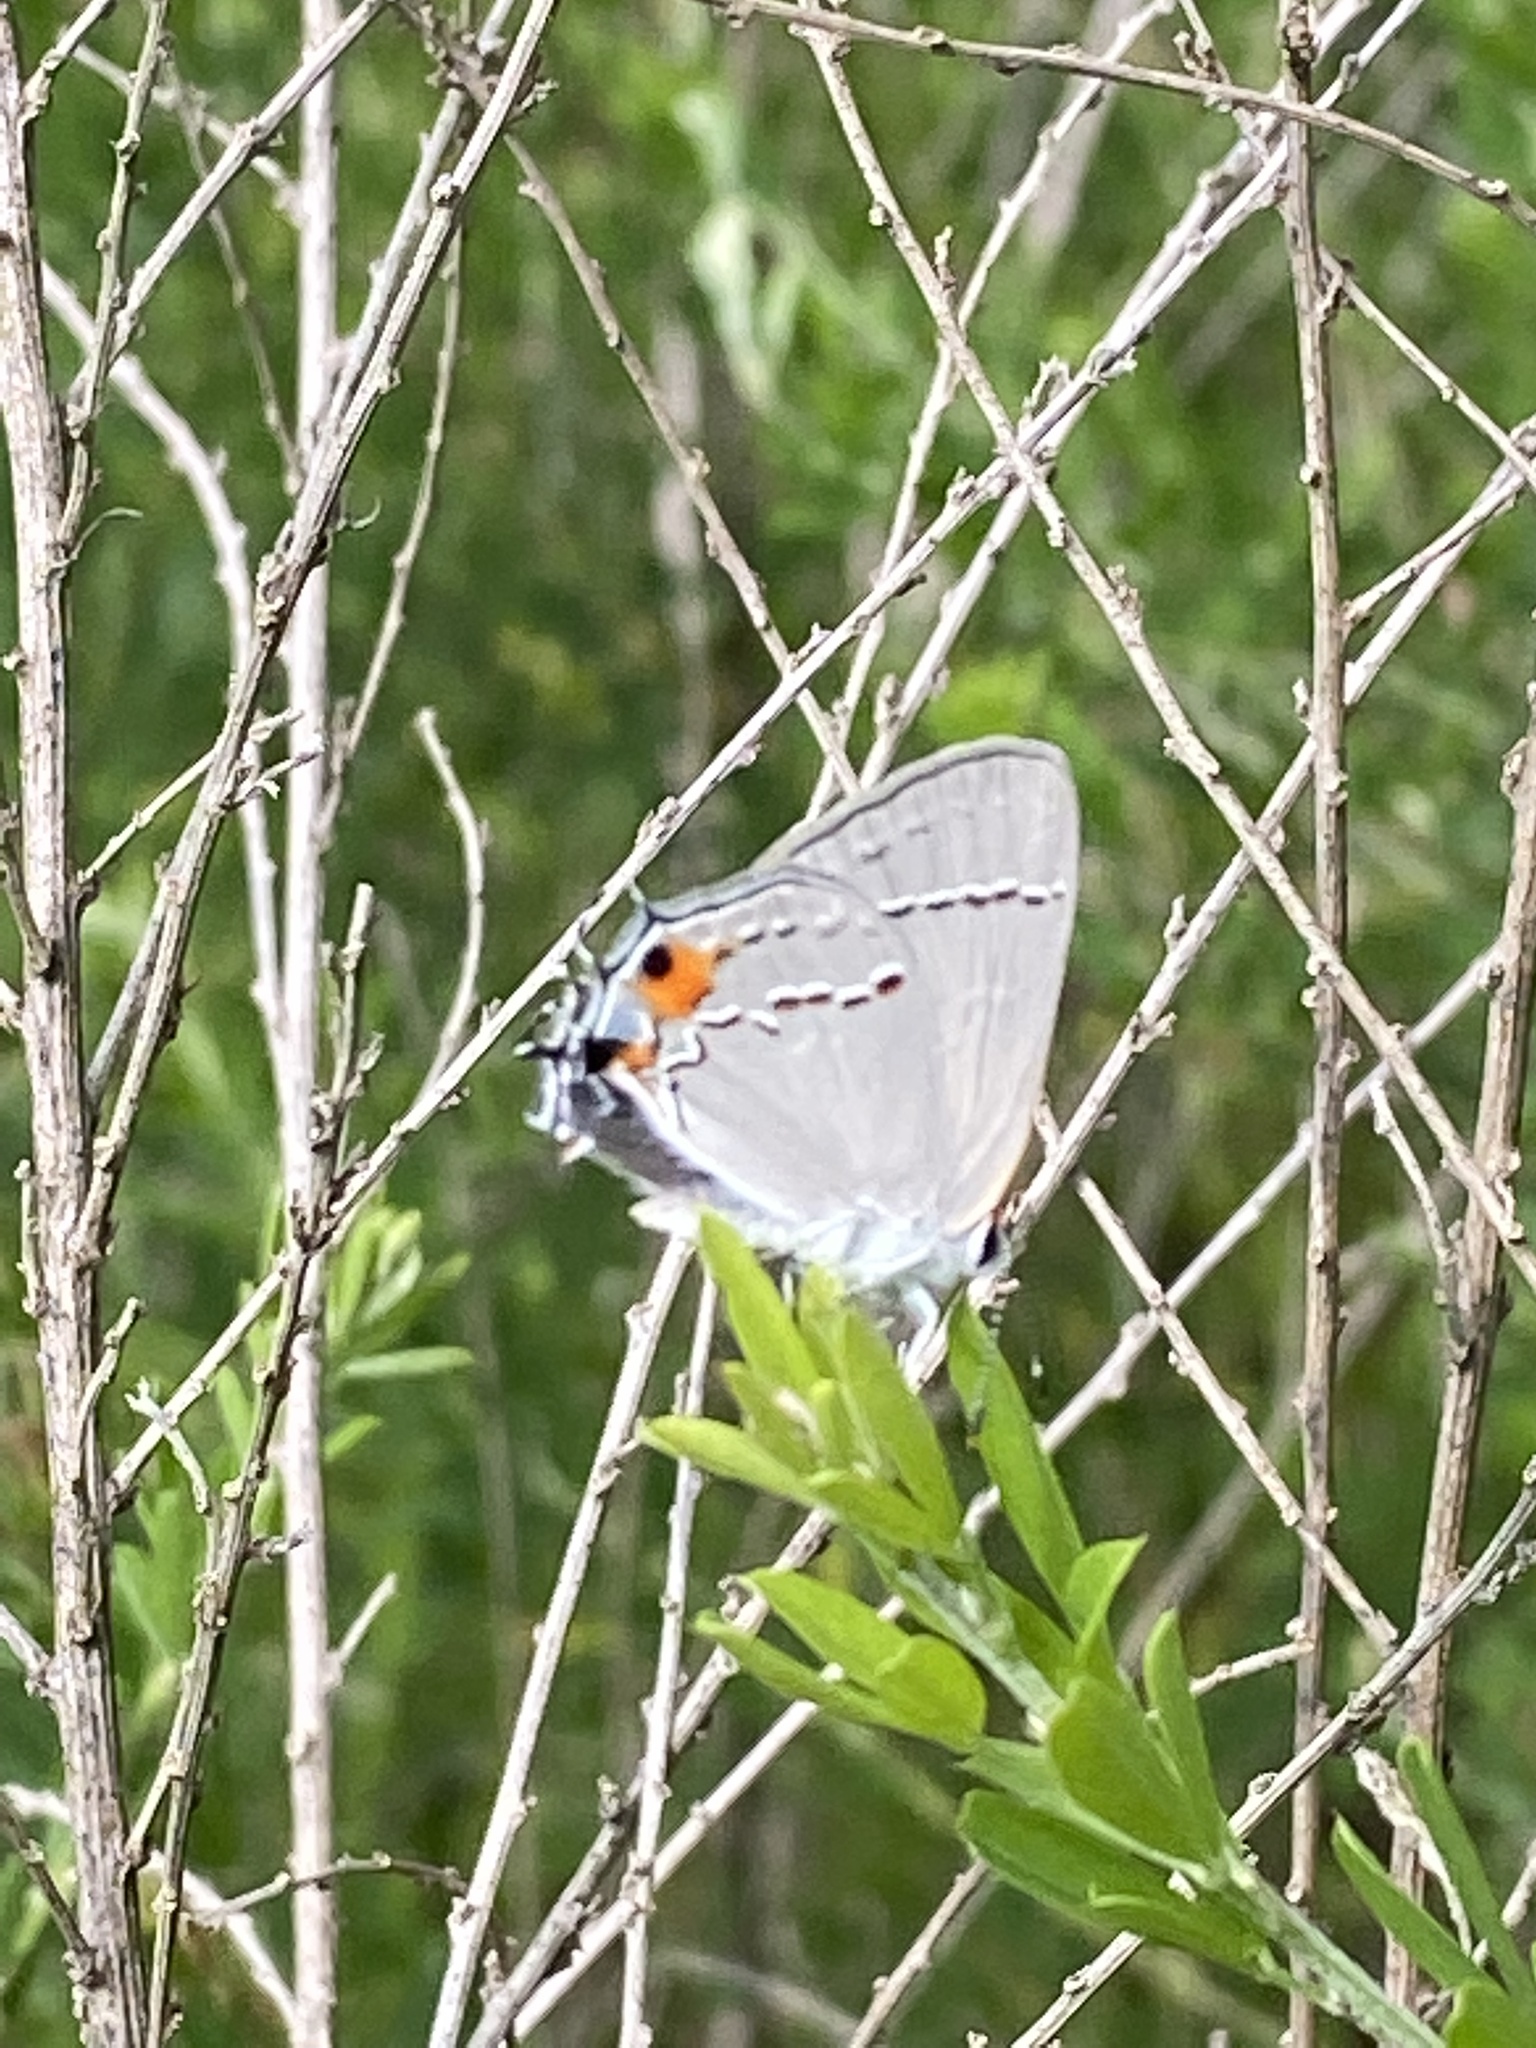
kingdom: Animalia
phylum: Arthropoda
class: Insecta
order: Lepidoptera
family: Lycaenidae
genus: Strymon
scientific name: Strymon melinus
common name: Gray hairstreak
